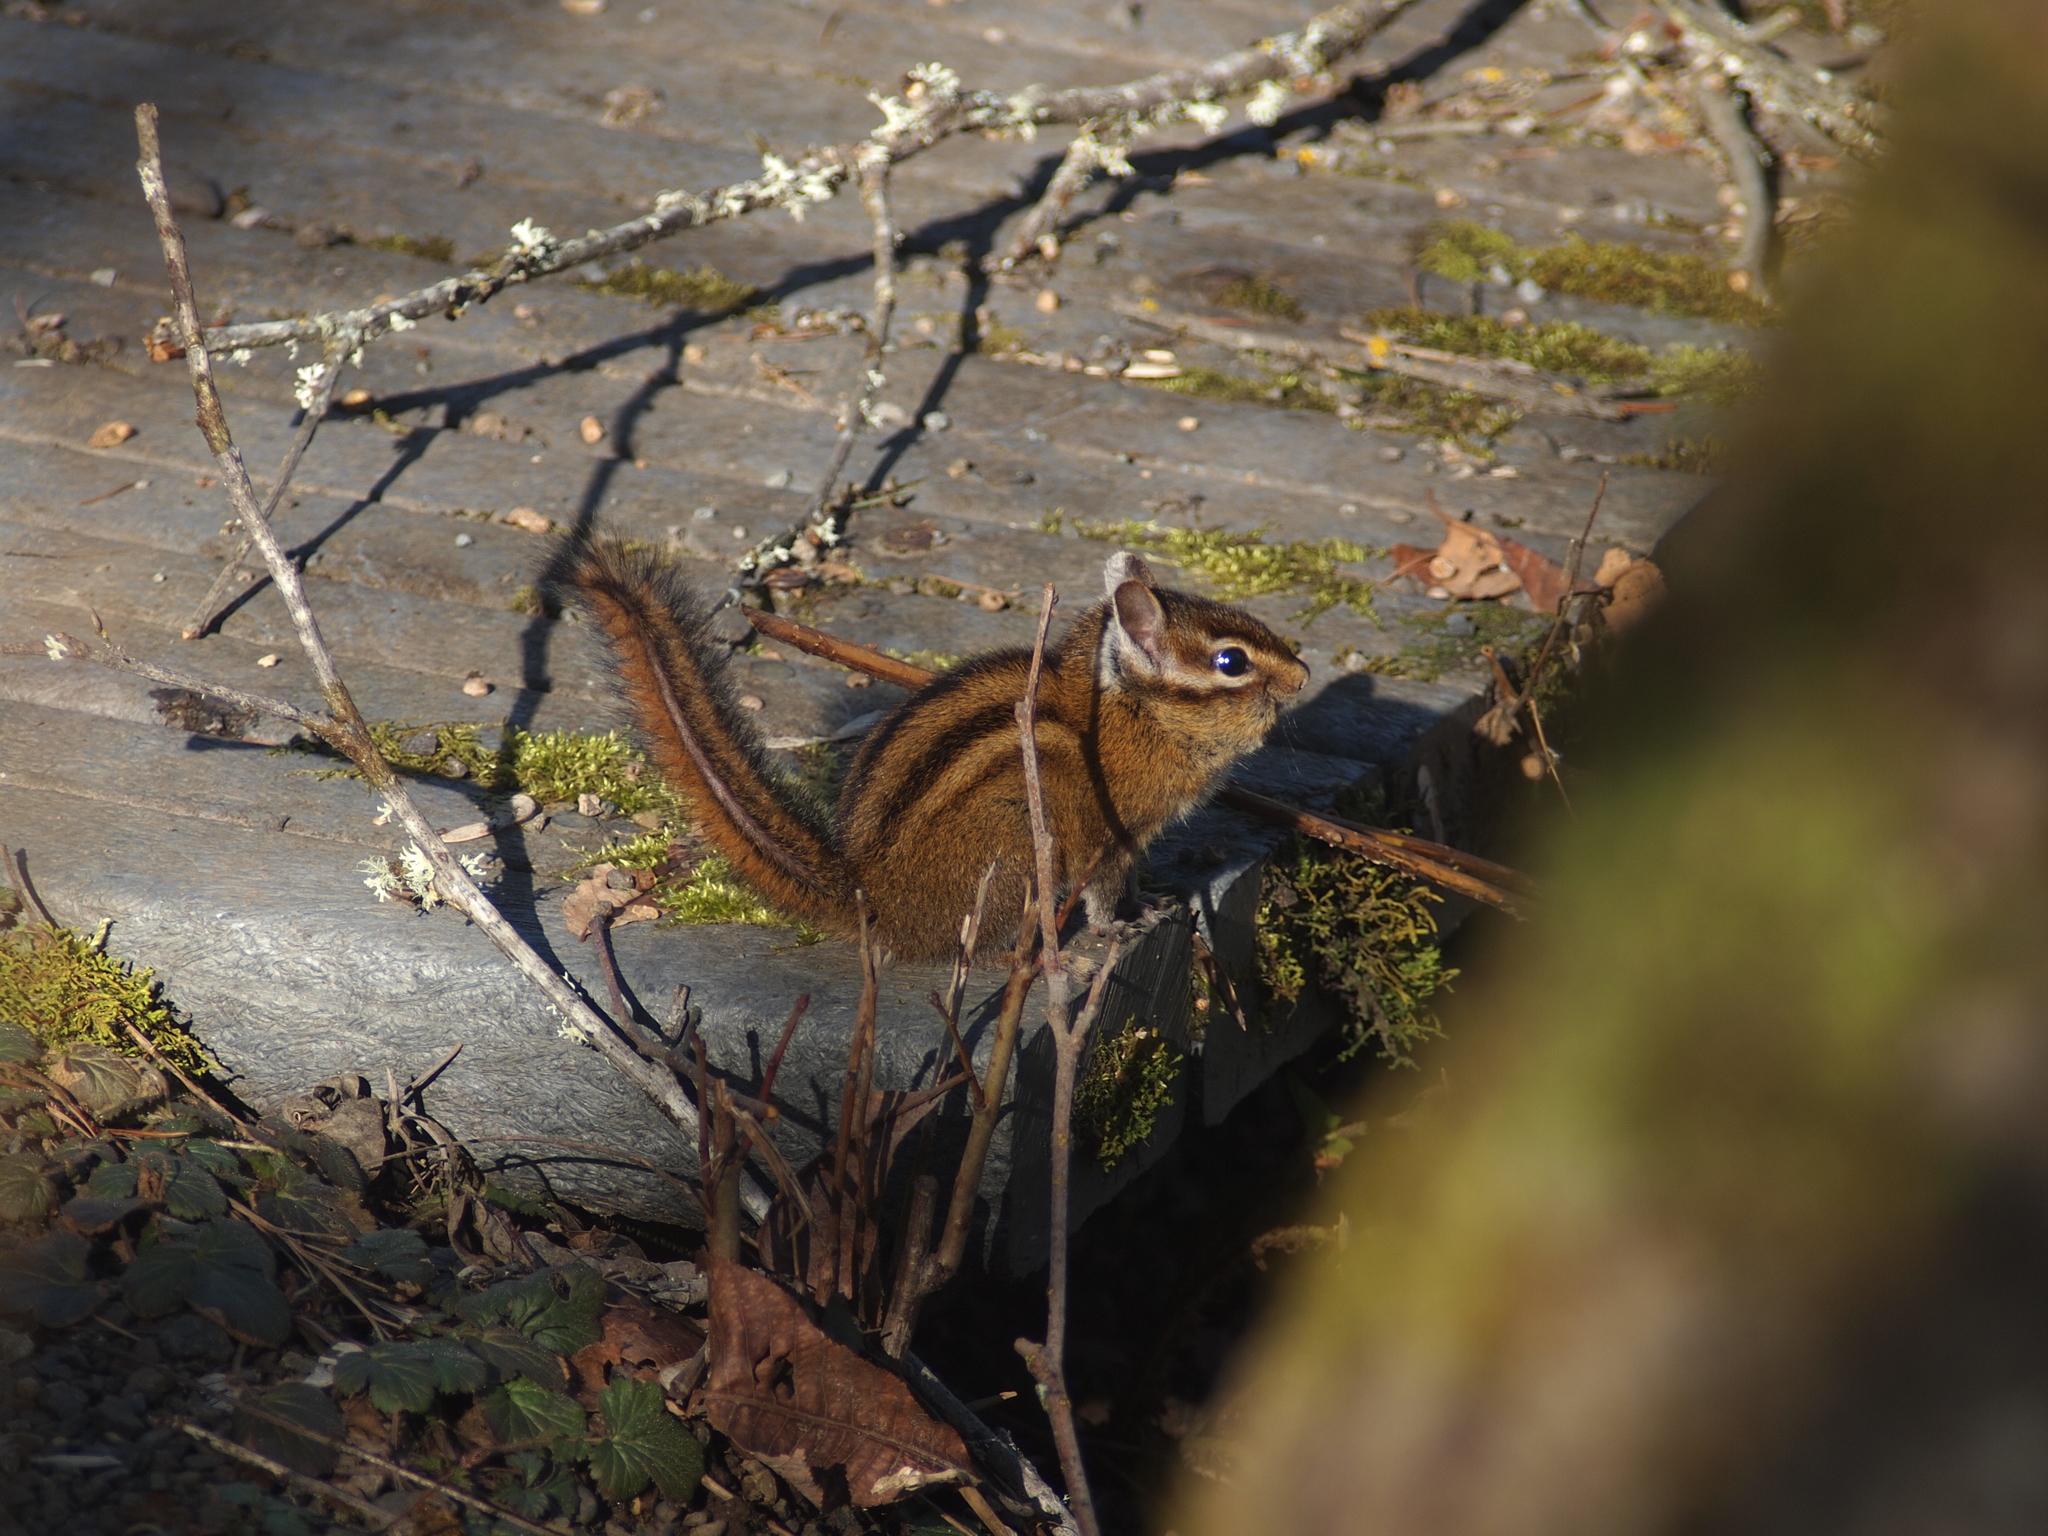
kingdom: Animalia
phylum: Chordata
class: Mammalia
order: Rodentia
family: Sciuridae
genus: Tamias
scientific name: Tamias townsendii
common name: Townsend's chipmunk
